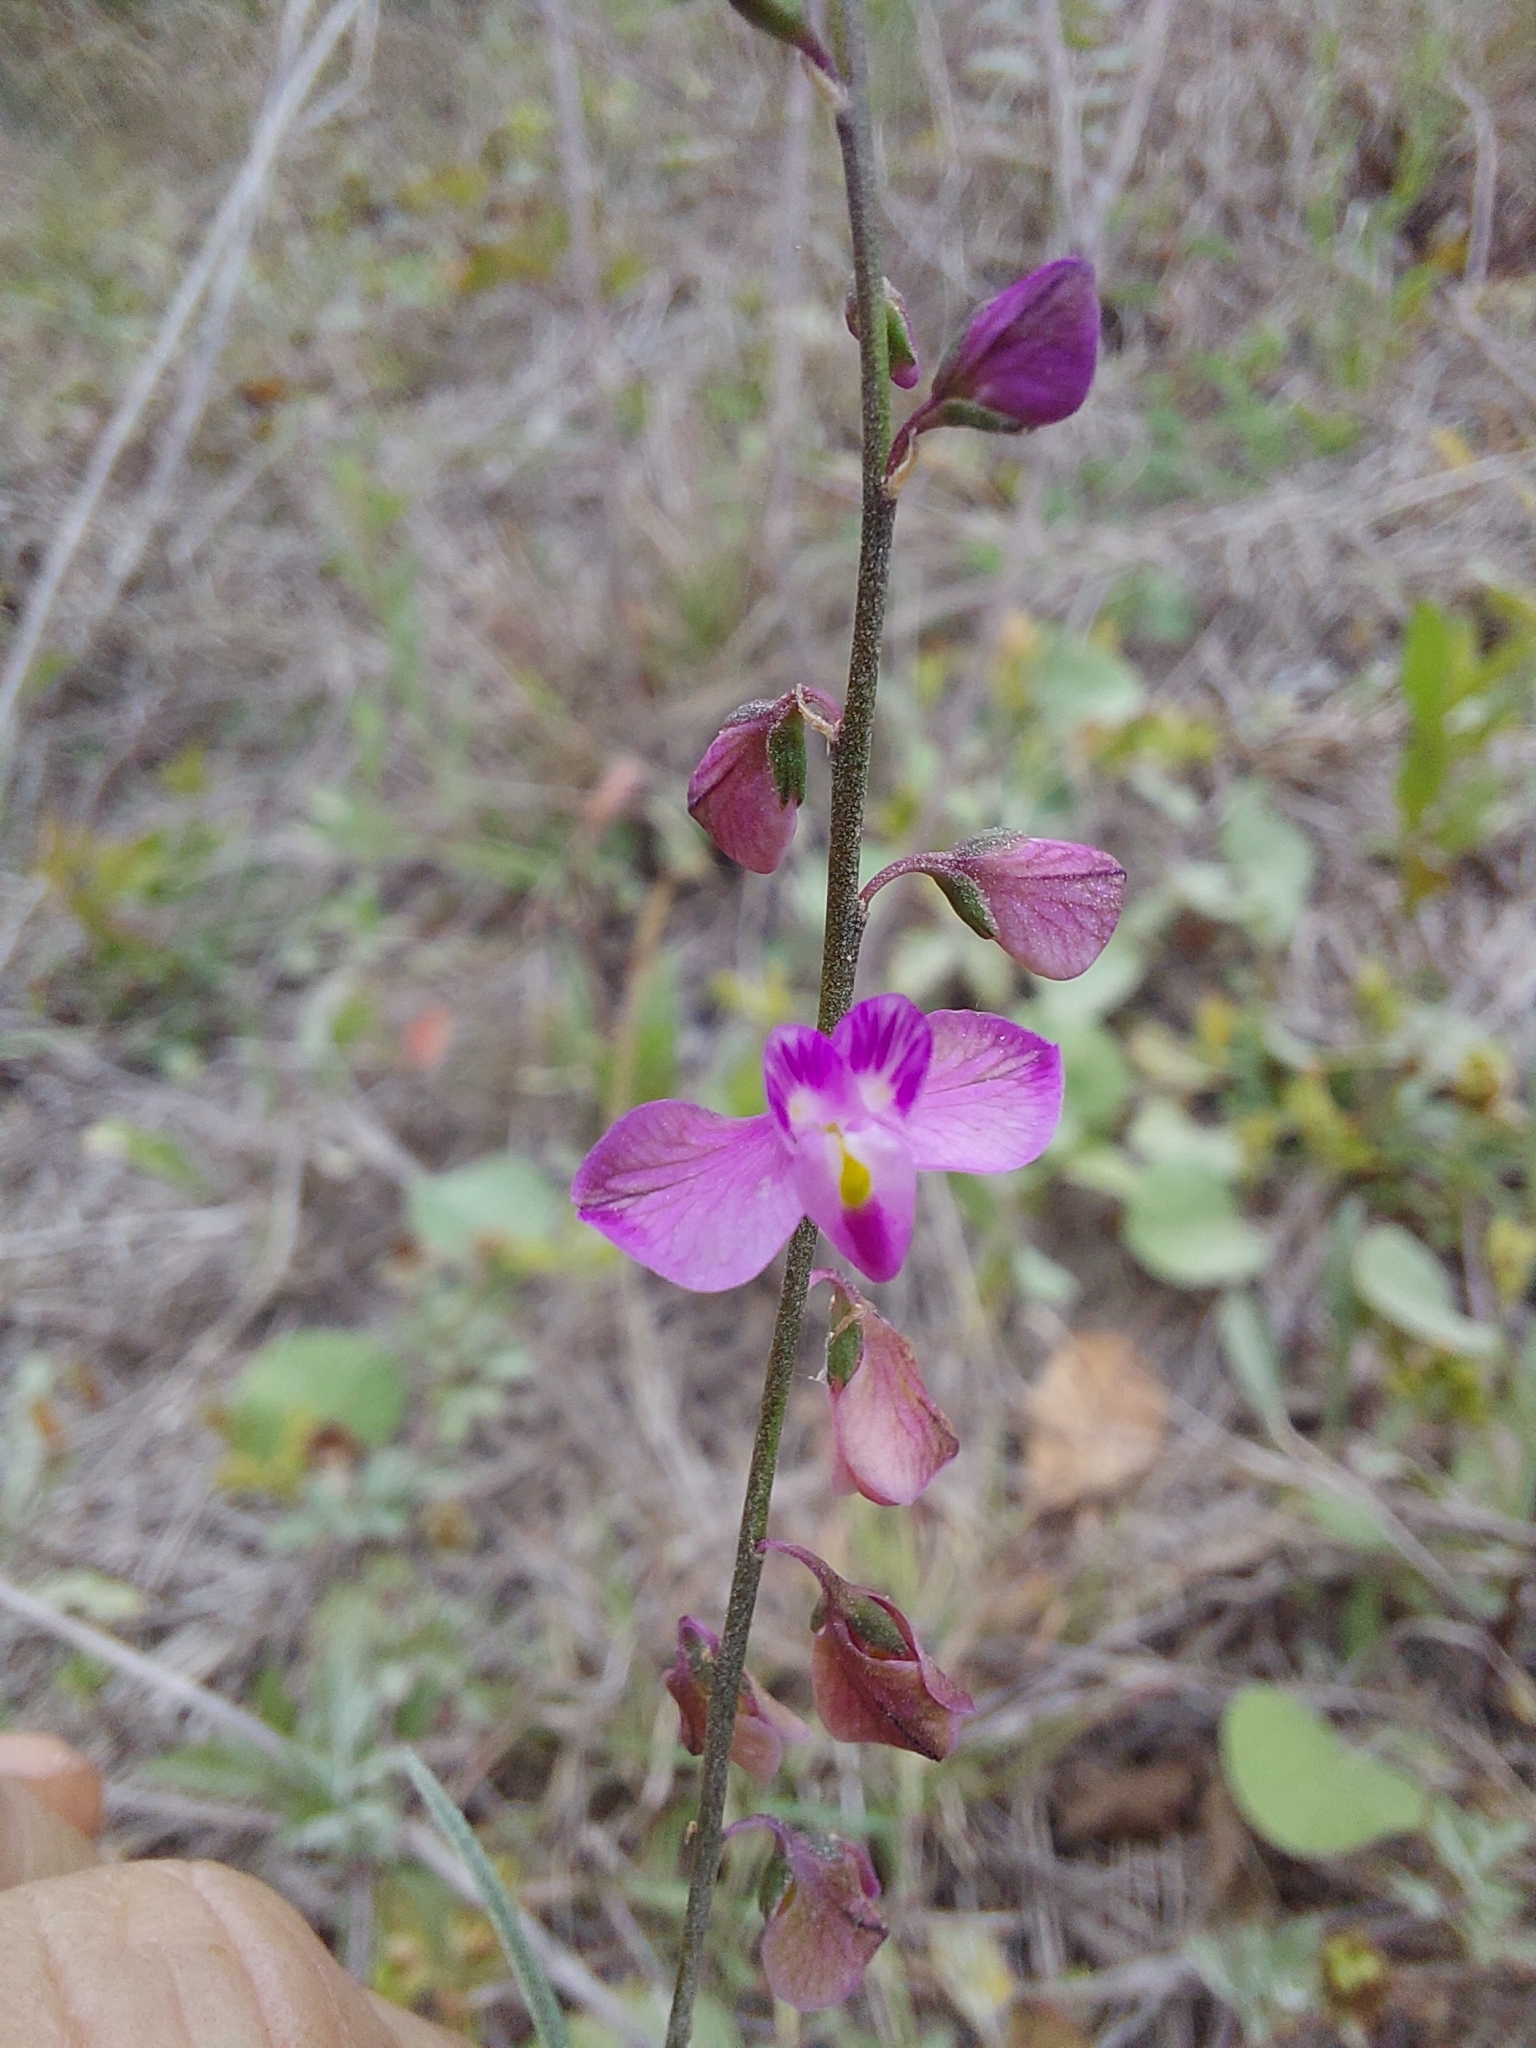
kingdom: Plantae
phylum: Tracheophyta
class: Magnoliopsida
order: Fabales
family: Polygalaceae
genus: Asemeia
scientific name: Asemeia grandiflora
